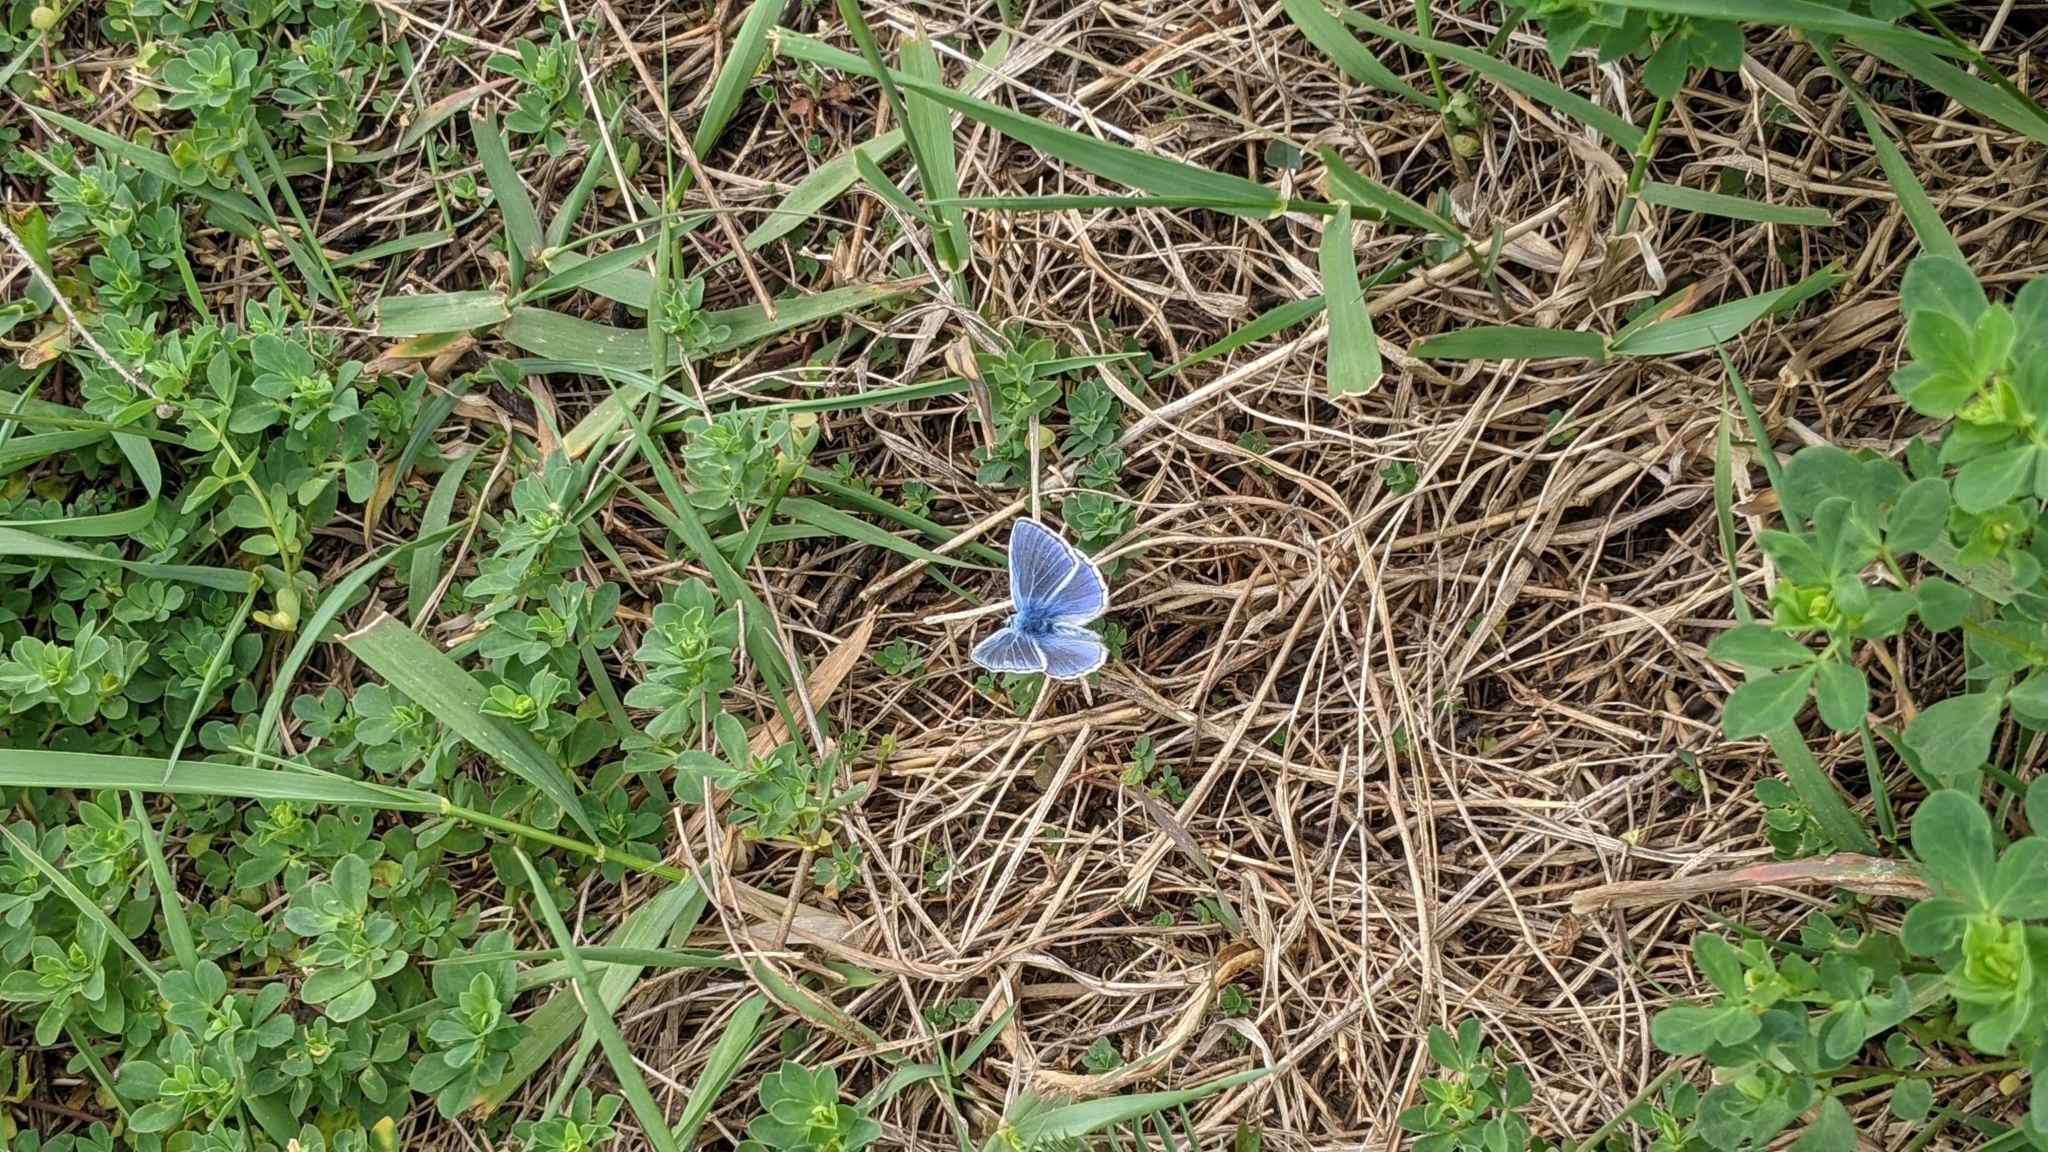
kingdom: Animalia
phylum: Arthropoda
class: Insecta
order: Lepidoptera
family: Lycaenidae
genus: Polyommatus
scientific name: Polyommatus icarus
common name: Common blue
